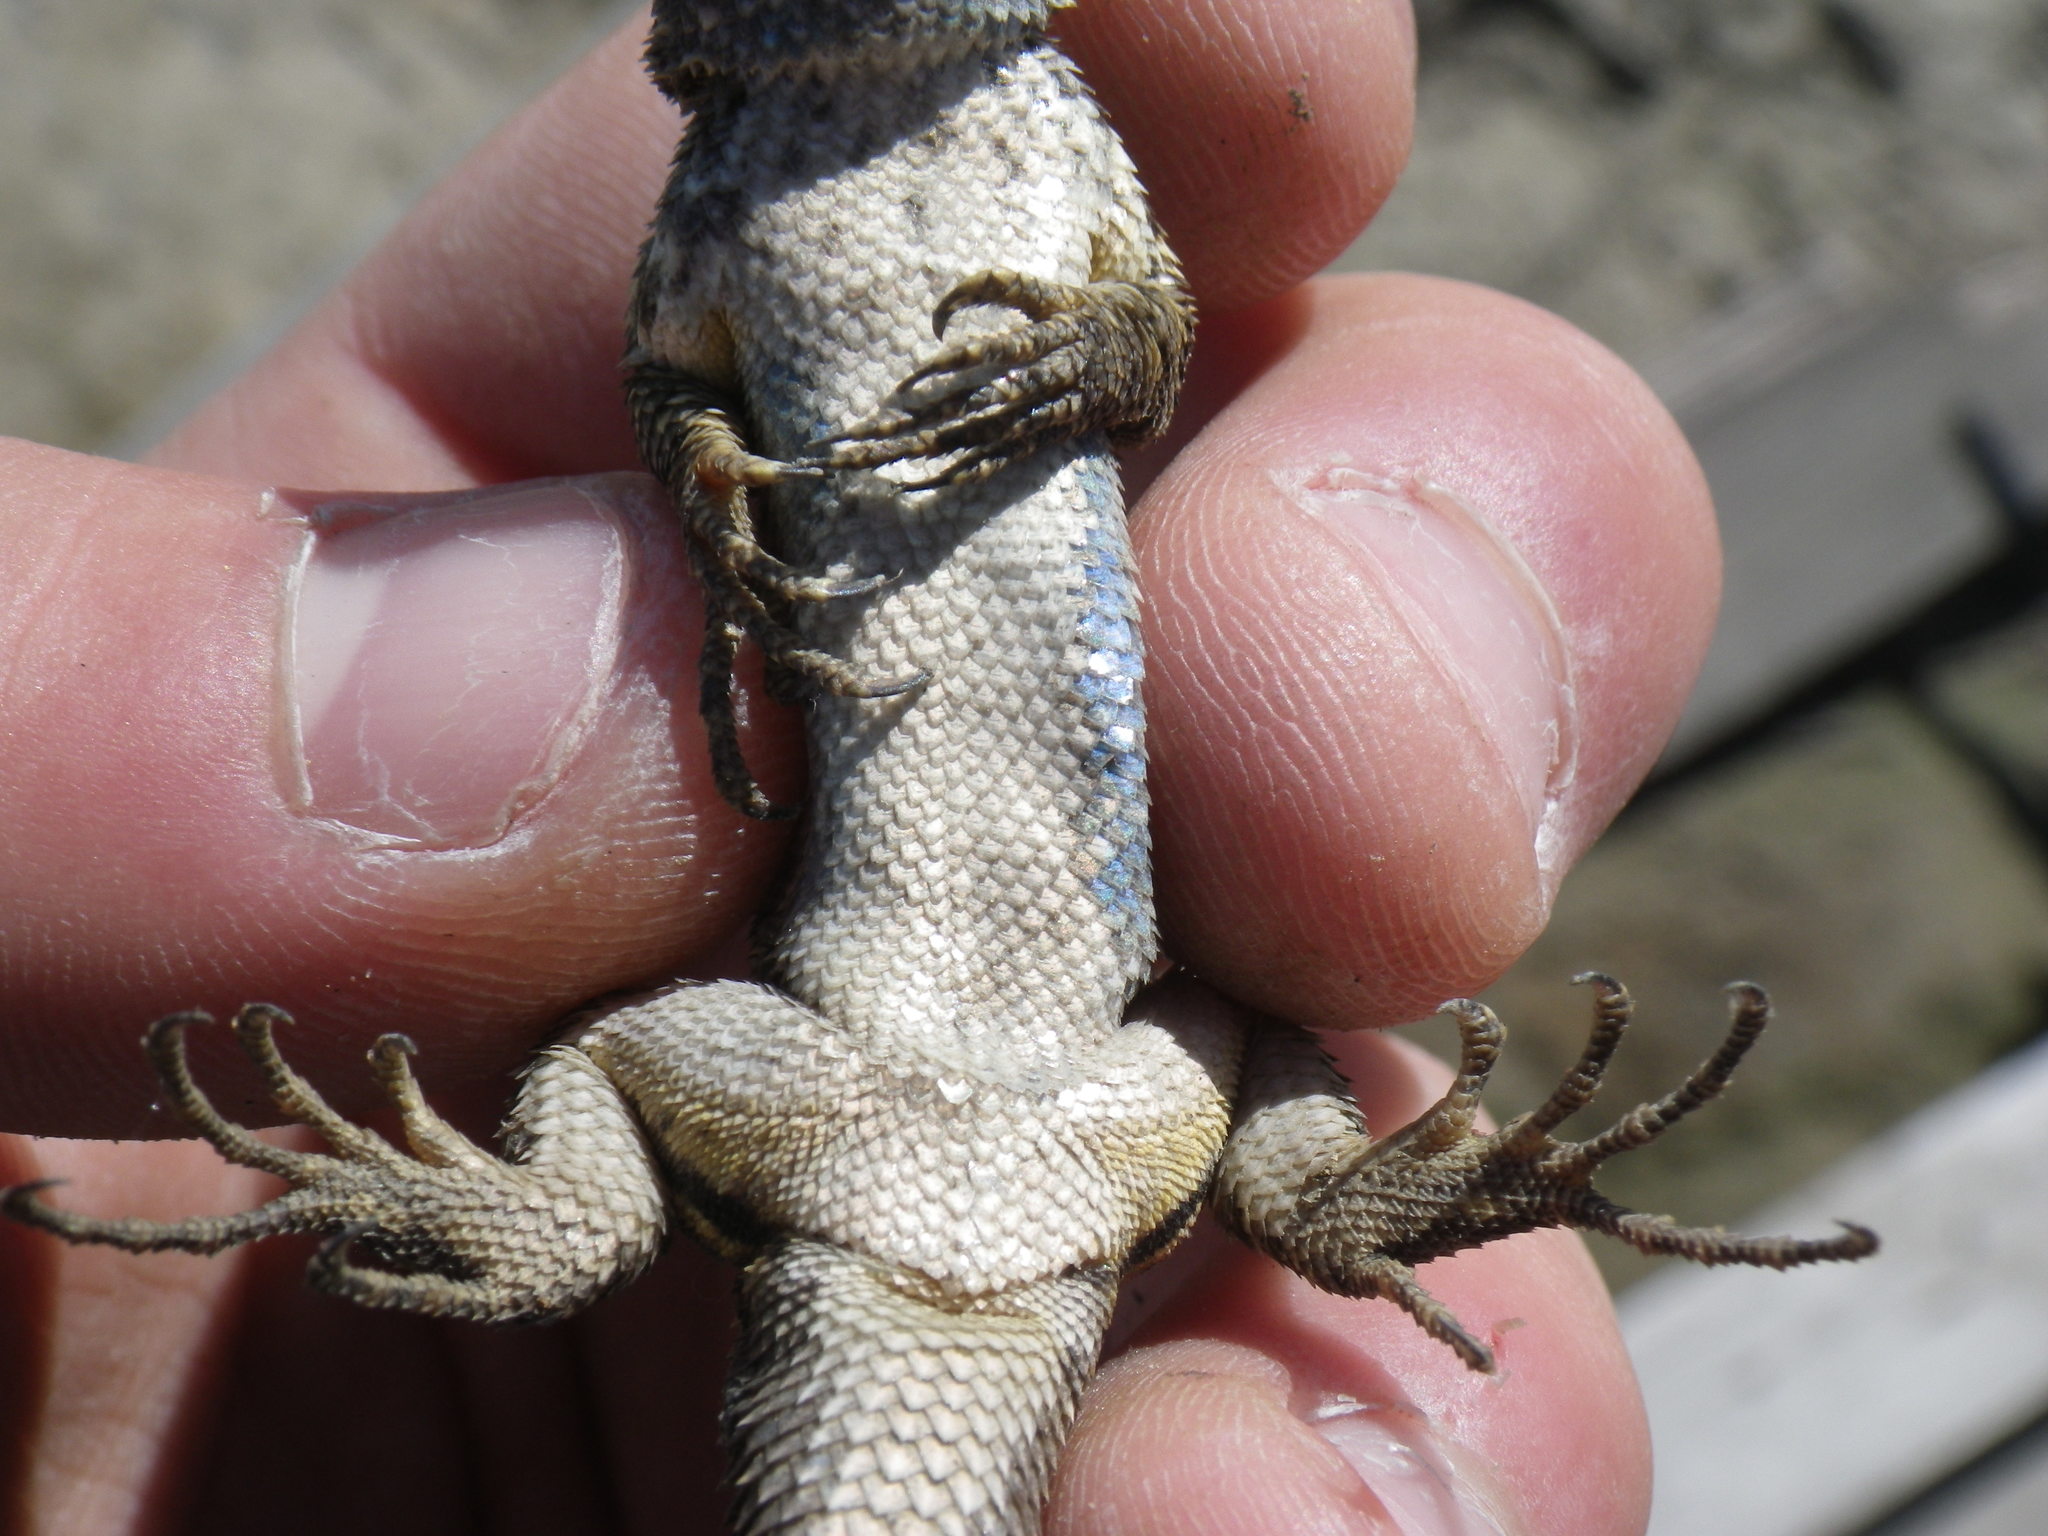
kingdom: Animalia
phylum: Chordata
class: Squamata
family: Phrynosomatidae
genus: Sceloporus
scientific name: Sceloporus occidentalis
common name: Western fence lizard
